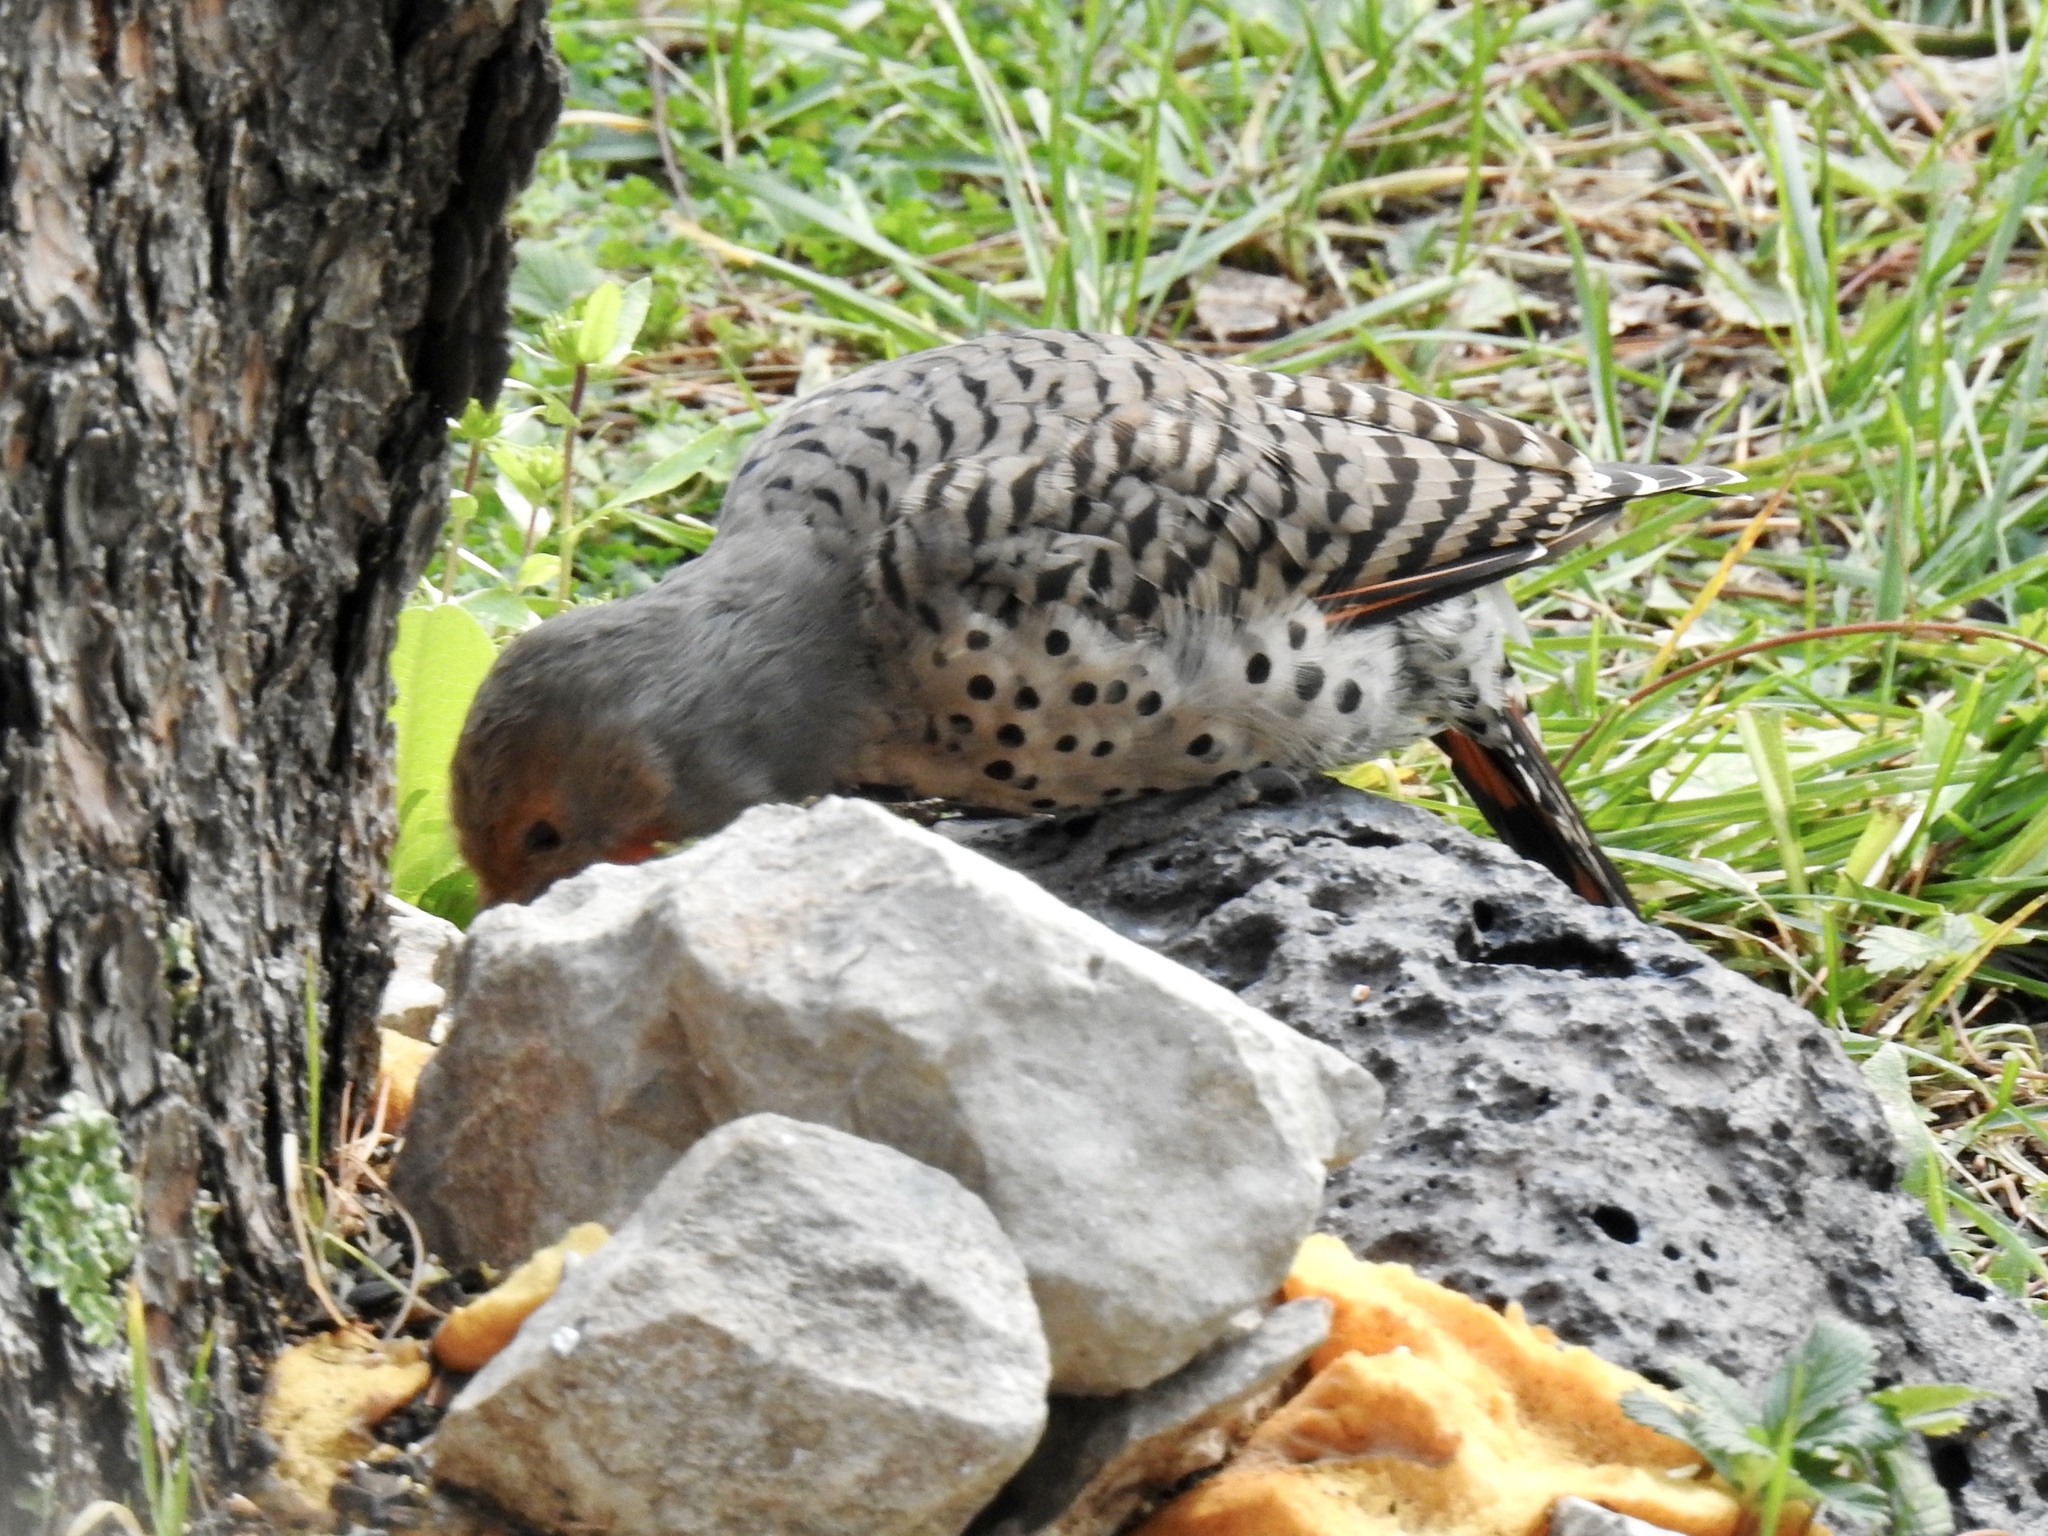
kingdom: Animalia
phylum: Chordata
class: Aves
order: Piciformes
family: Picidae
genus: Colaptes
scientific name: Colaptes auratus
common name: Northern flicker
